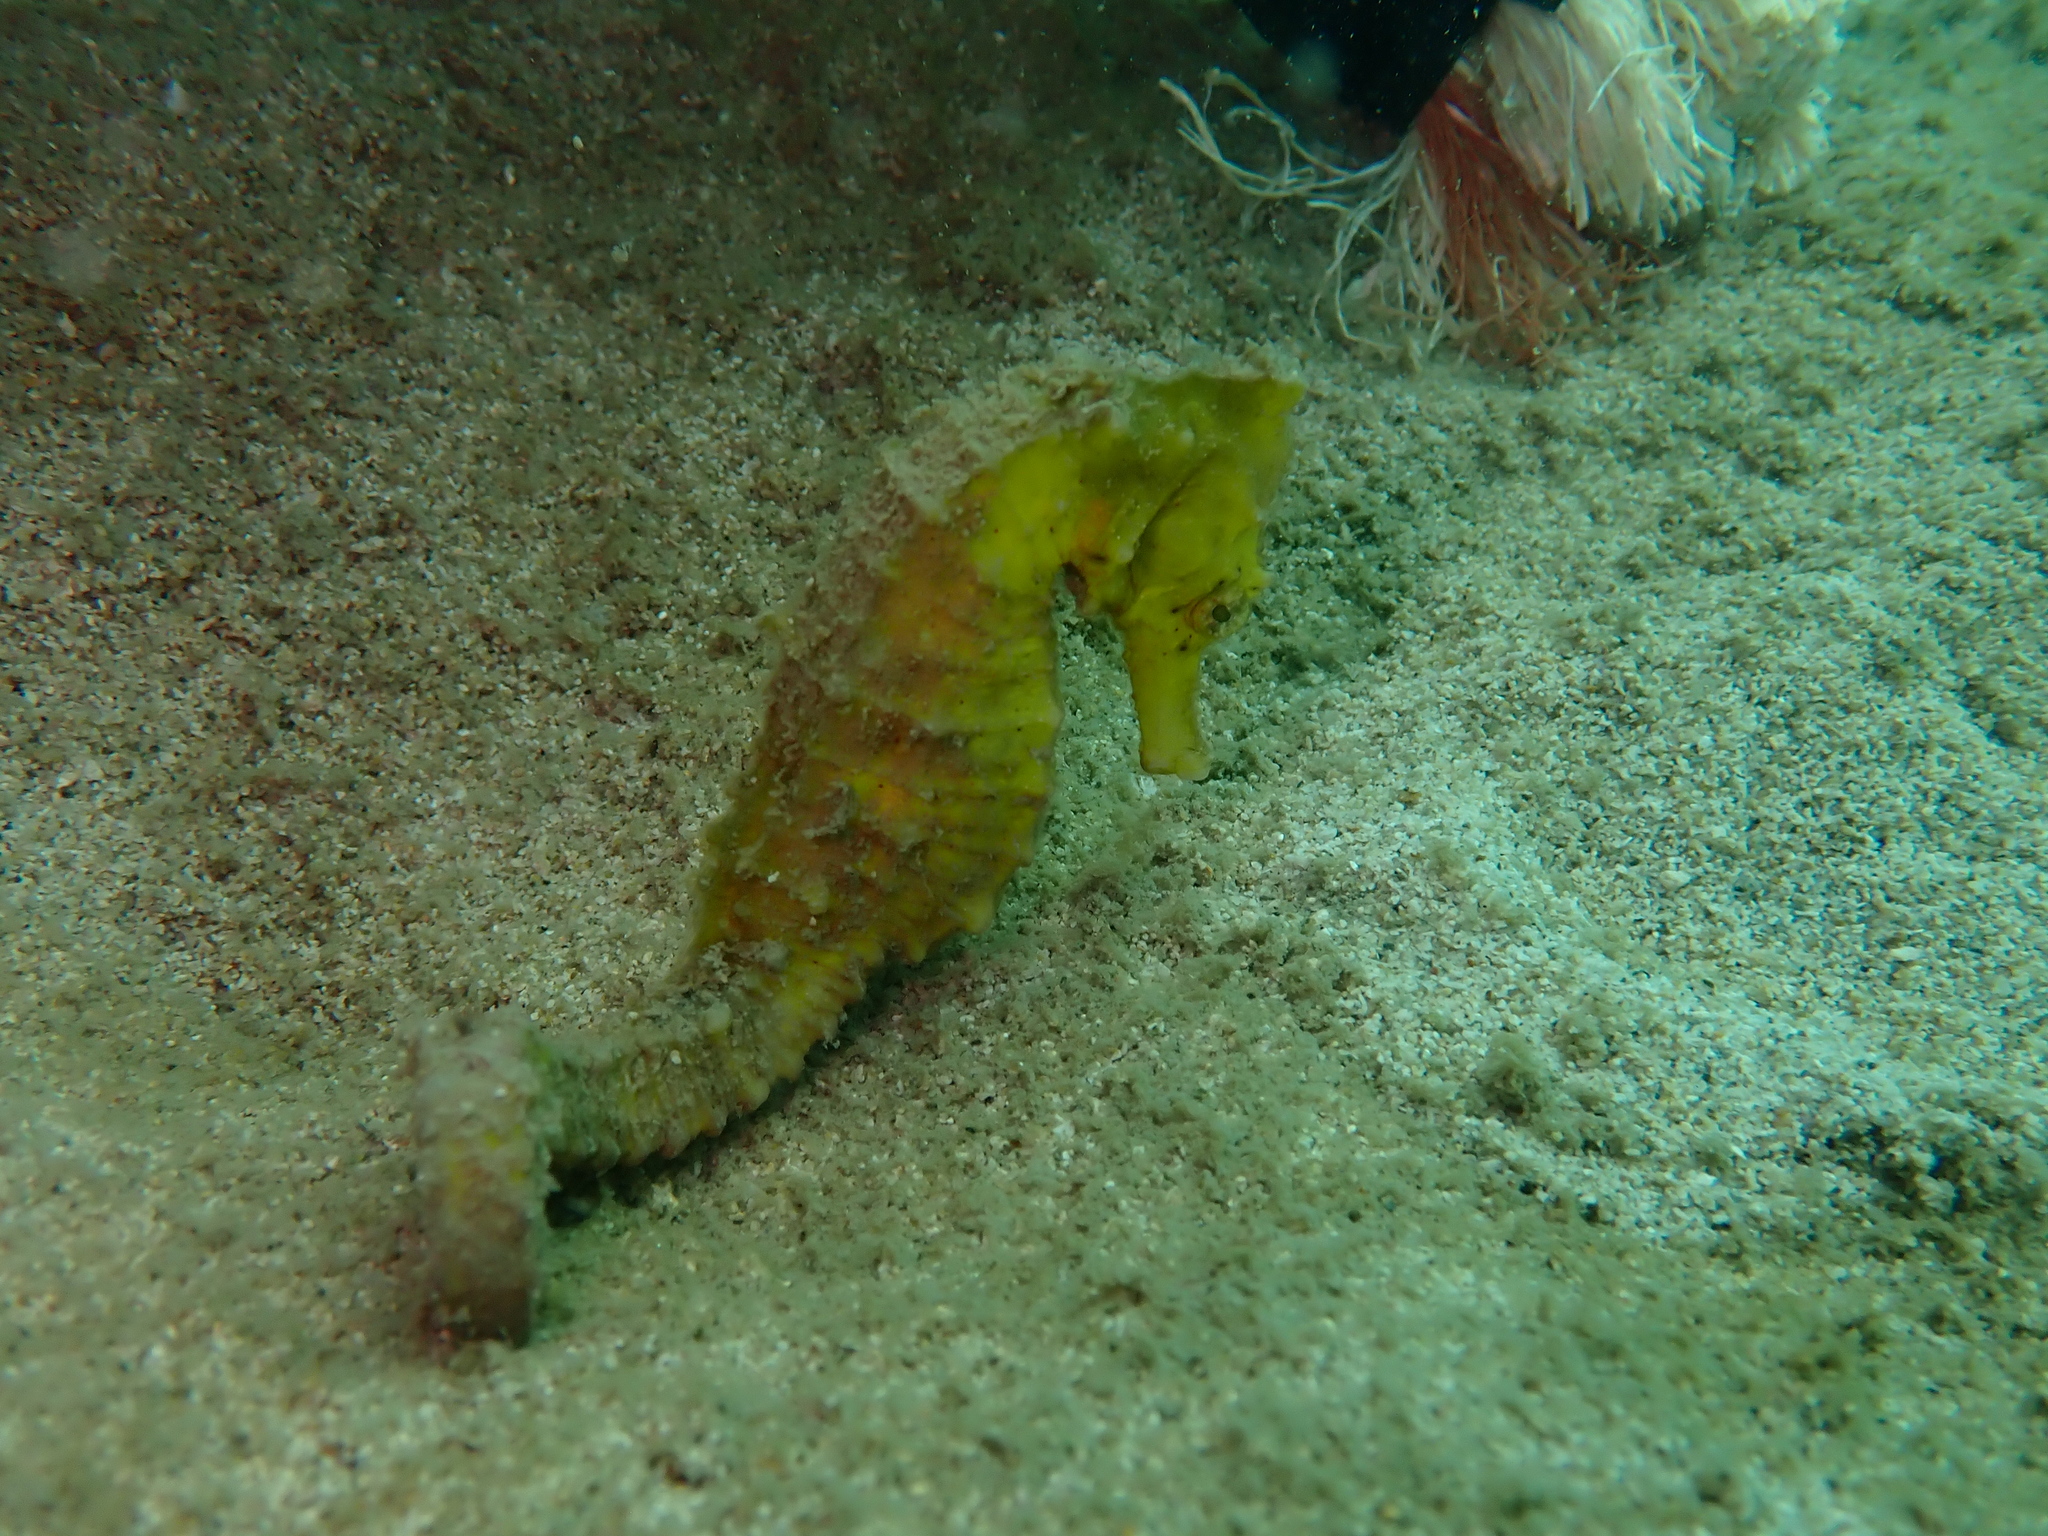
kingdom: Animalia
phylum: Chordata
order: Syngnathiformes
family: Syngnathidae
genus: Hippocampus
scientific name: Hippocampus kuda
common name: Spotted seahorse
